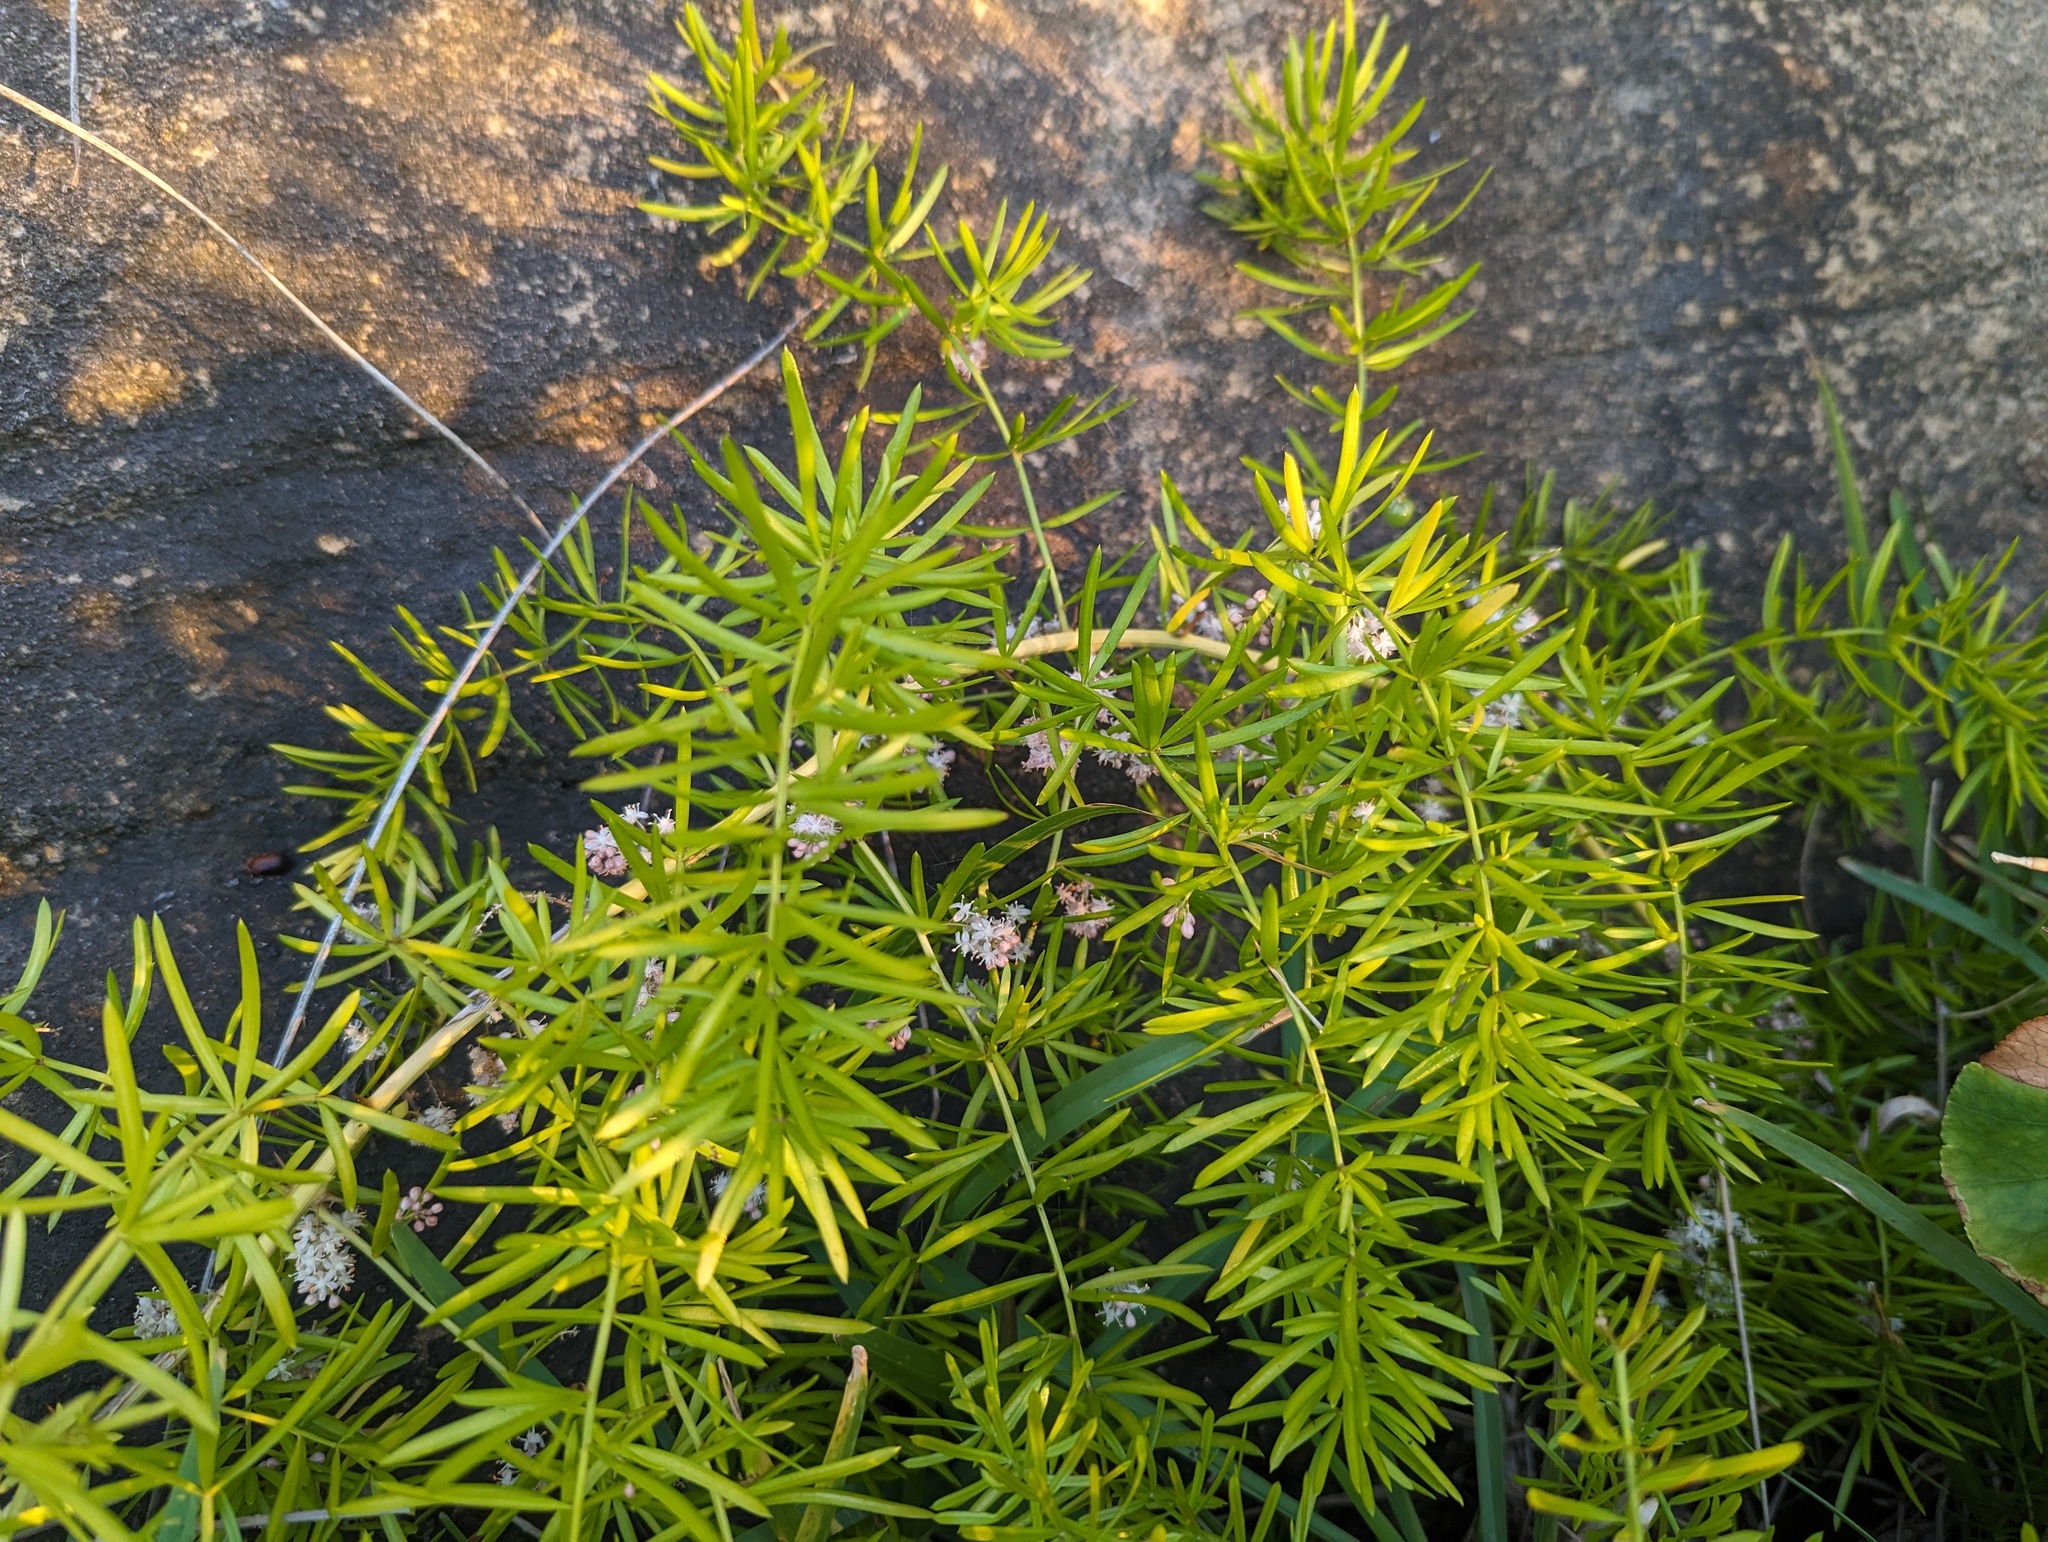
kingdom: Plantae
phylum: Tracheophyta
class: Liliopsida
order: Asparagales
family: Asparagaceae
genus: Asparagus
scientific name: Asparagus aethiopicus
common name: Sprenger's asparagus fern
